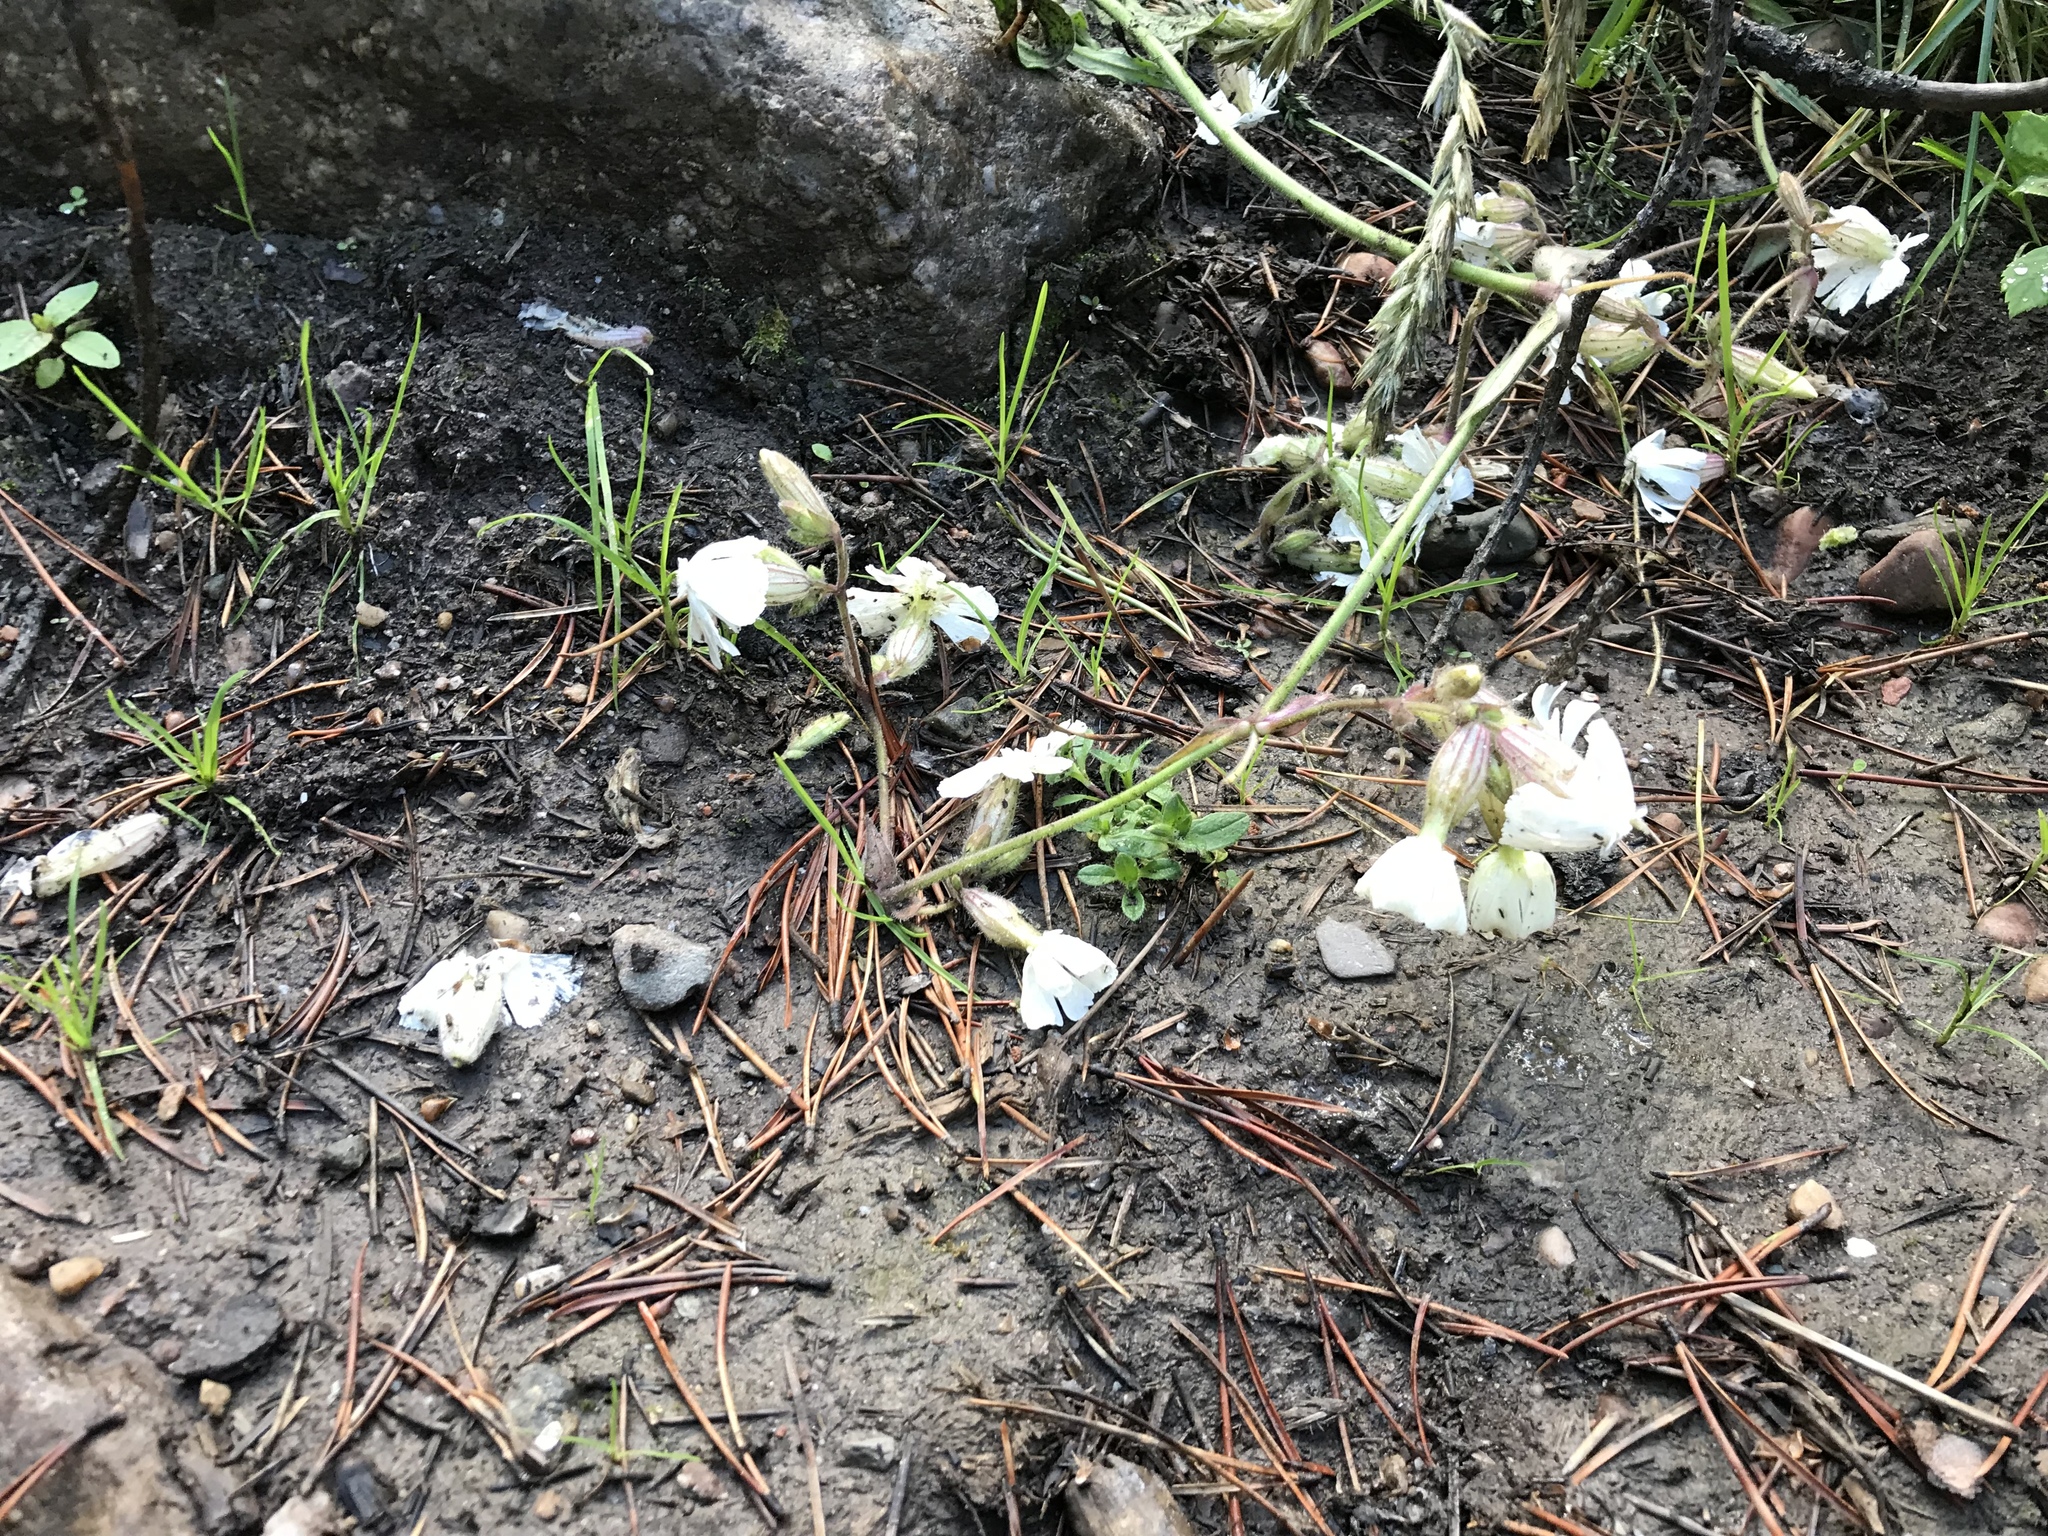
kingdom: Plantae
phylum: Tracheophyta
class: Magnoliopsida
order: Caryophyllales
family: Caryophyllaceae
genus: Silene
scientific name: Silene latifolia
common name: White campion
